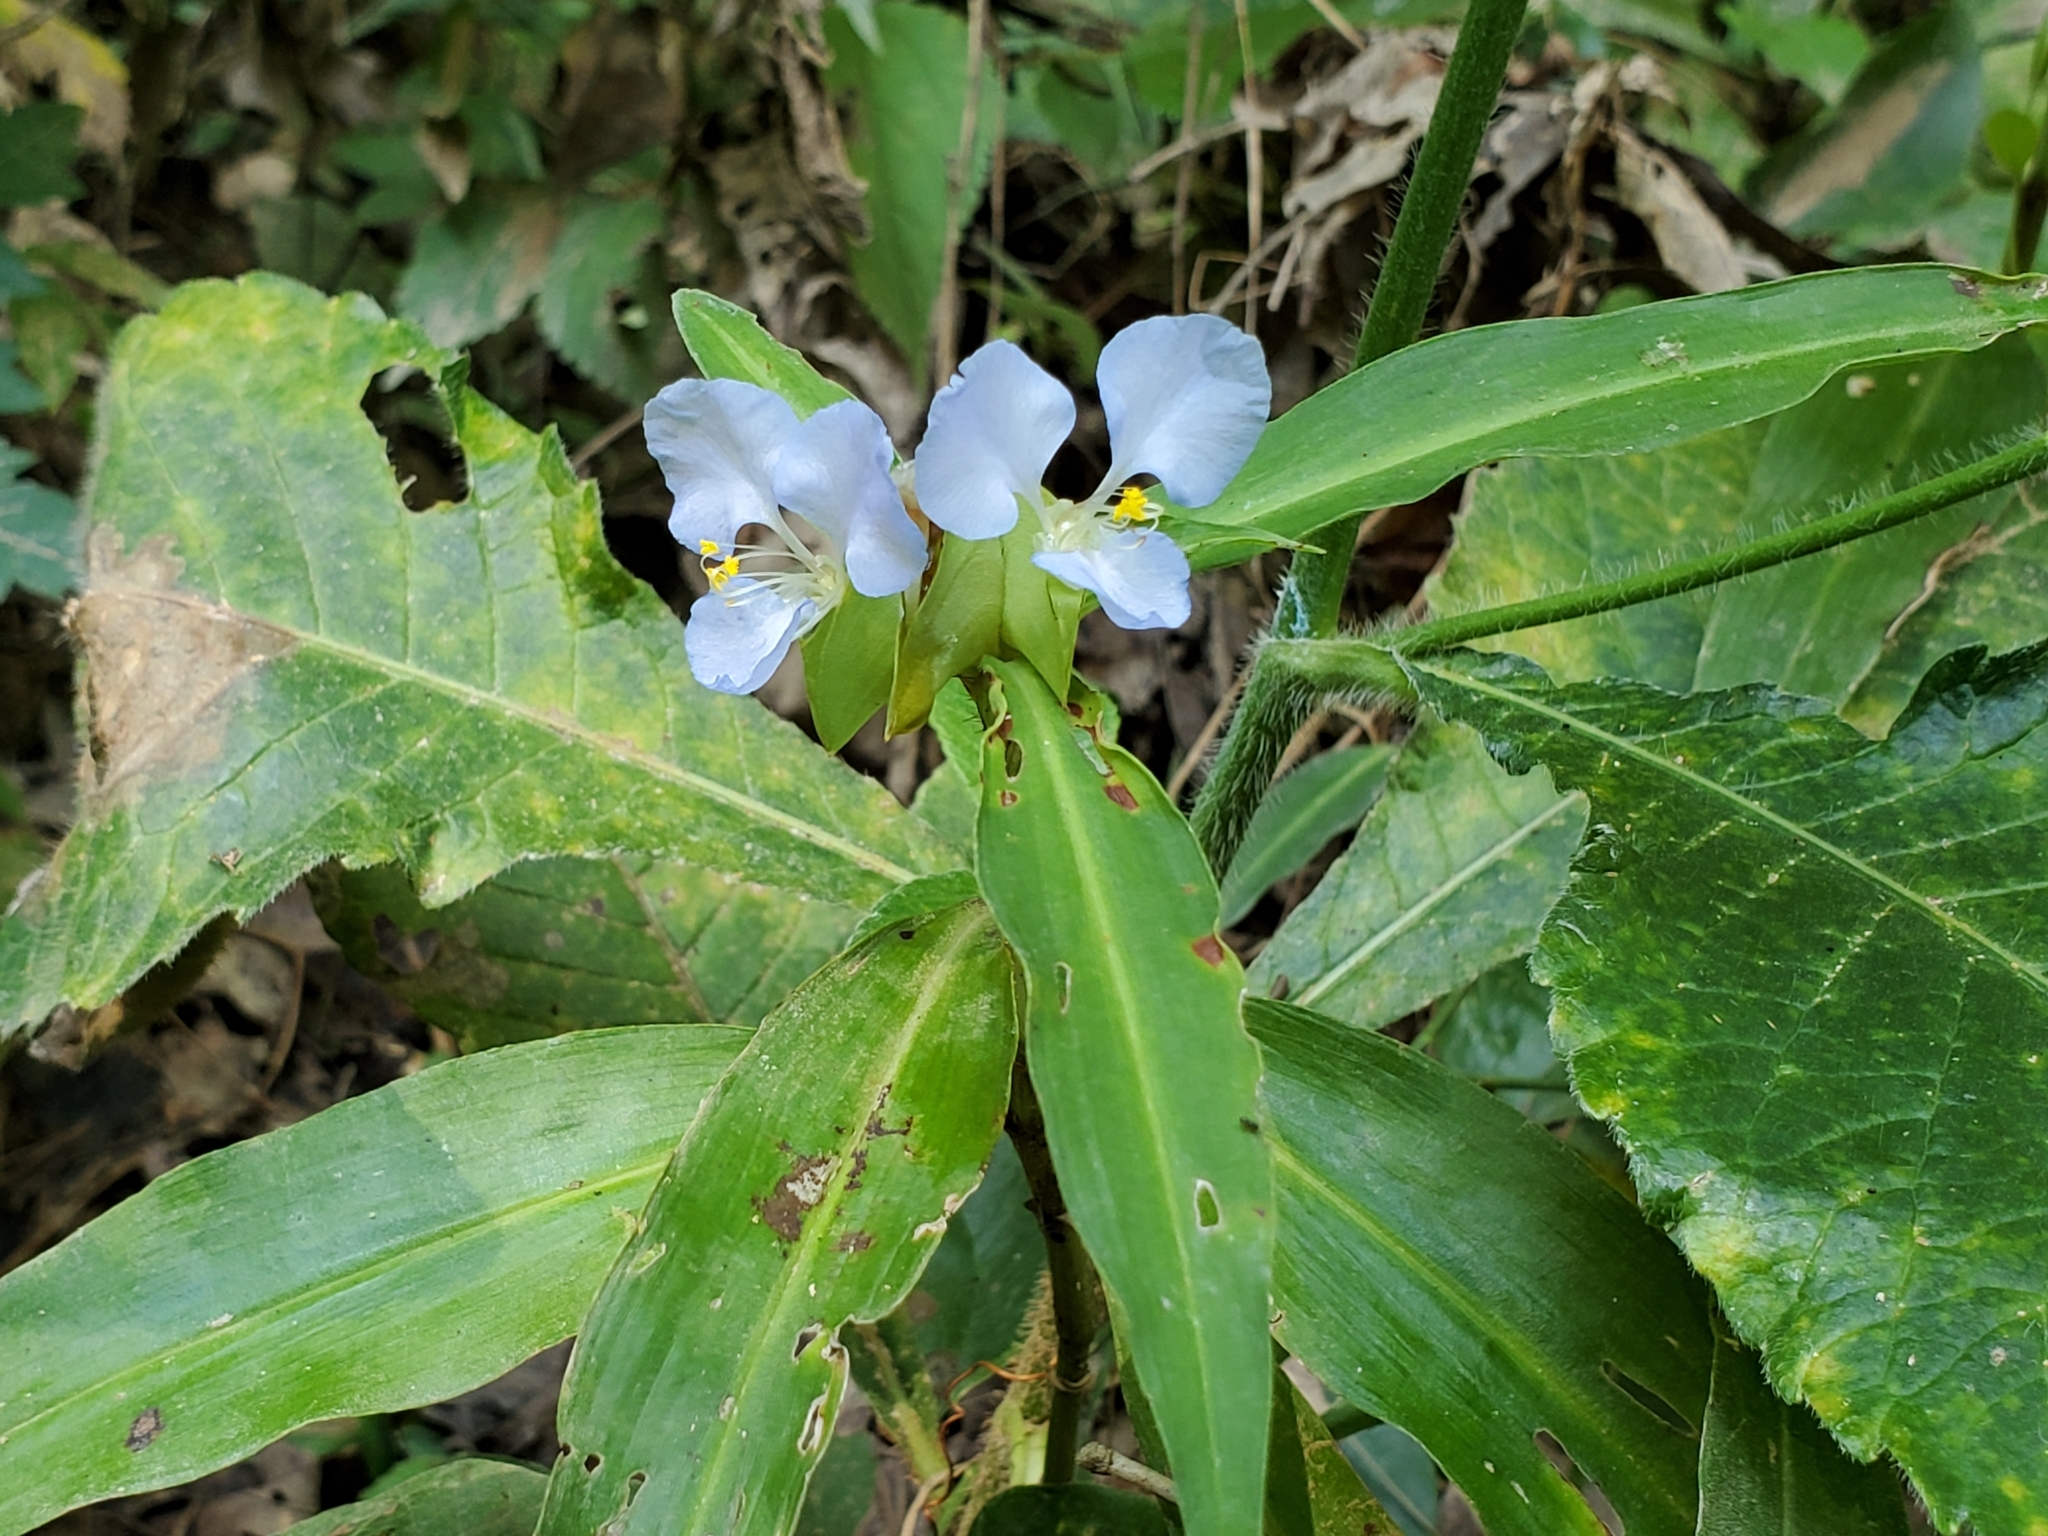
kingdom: Plantae
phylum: Tracheophyta
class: Liliopsida
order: Commelinales
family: Commelinaceae
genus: Commelina
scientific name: Commelina virginica
